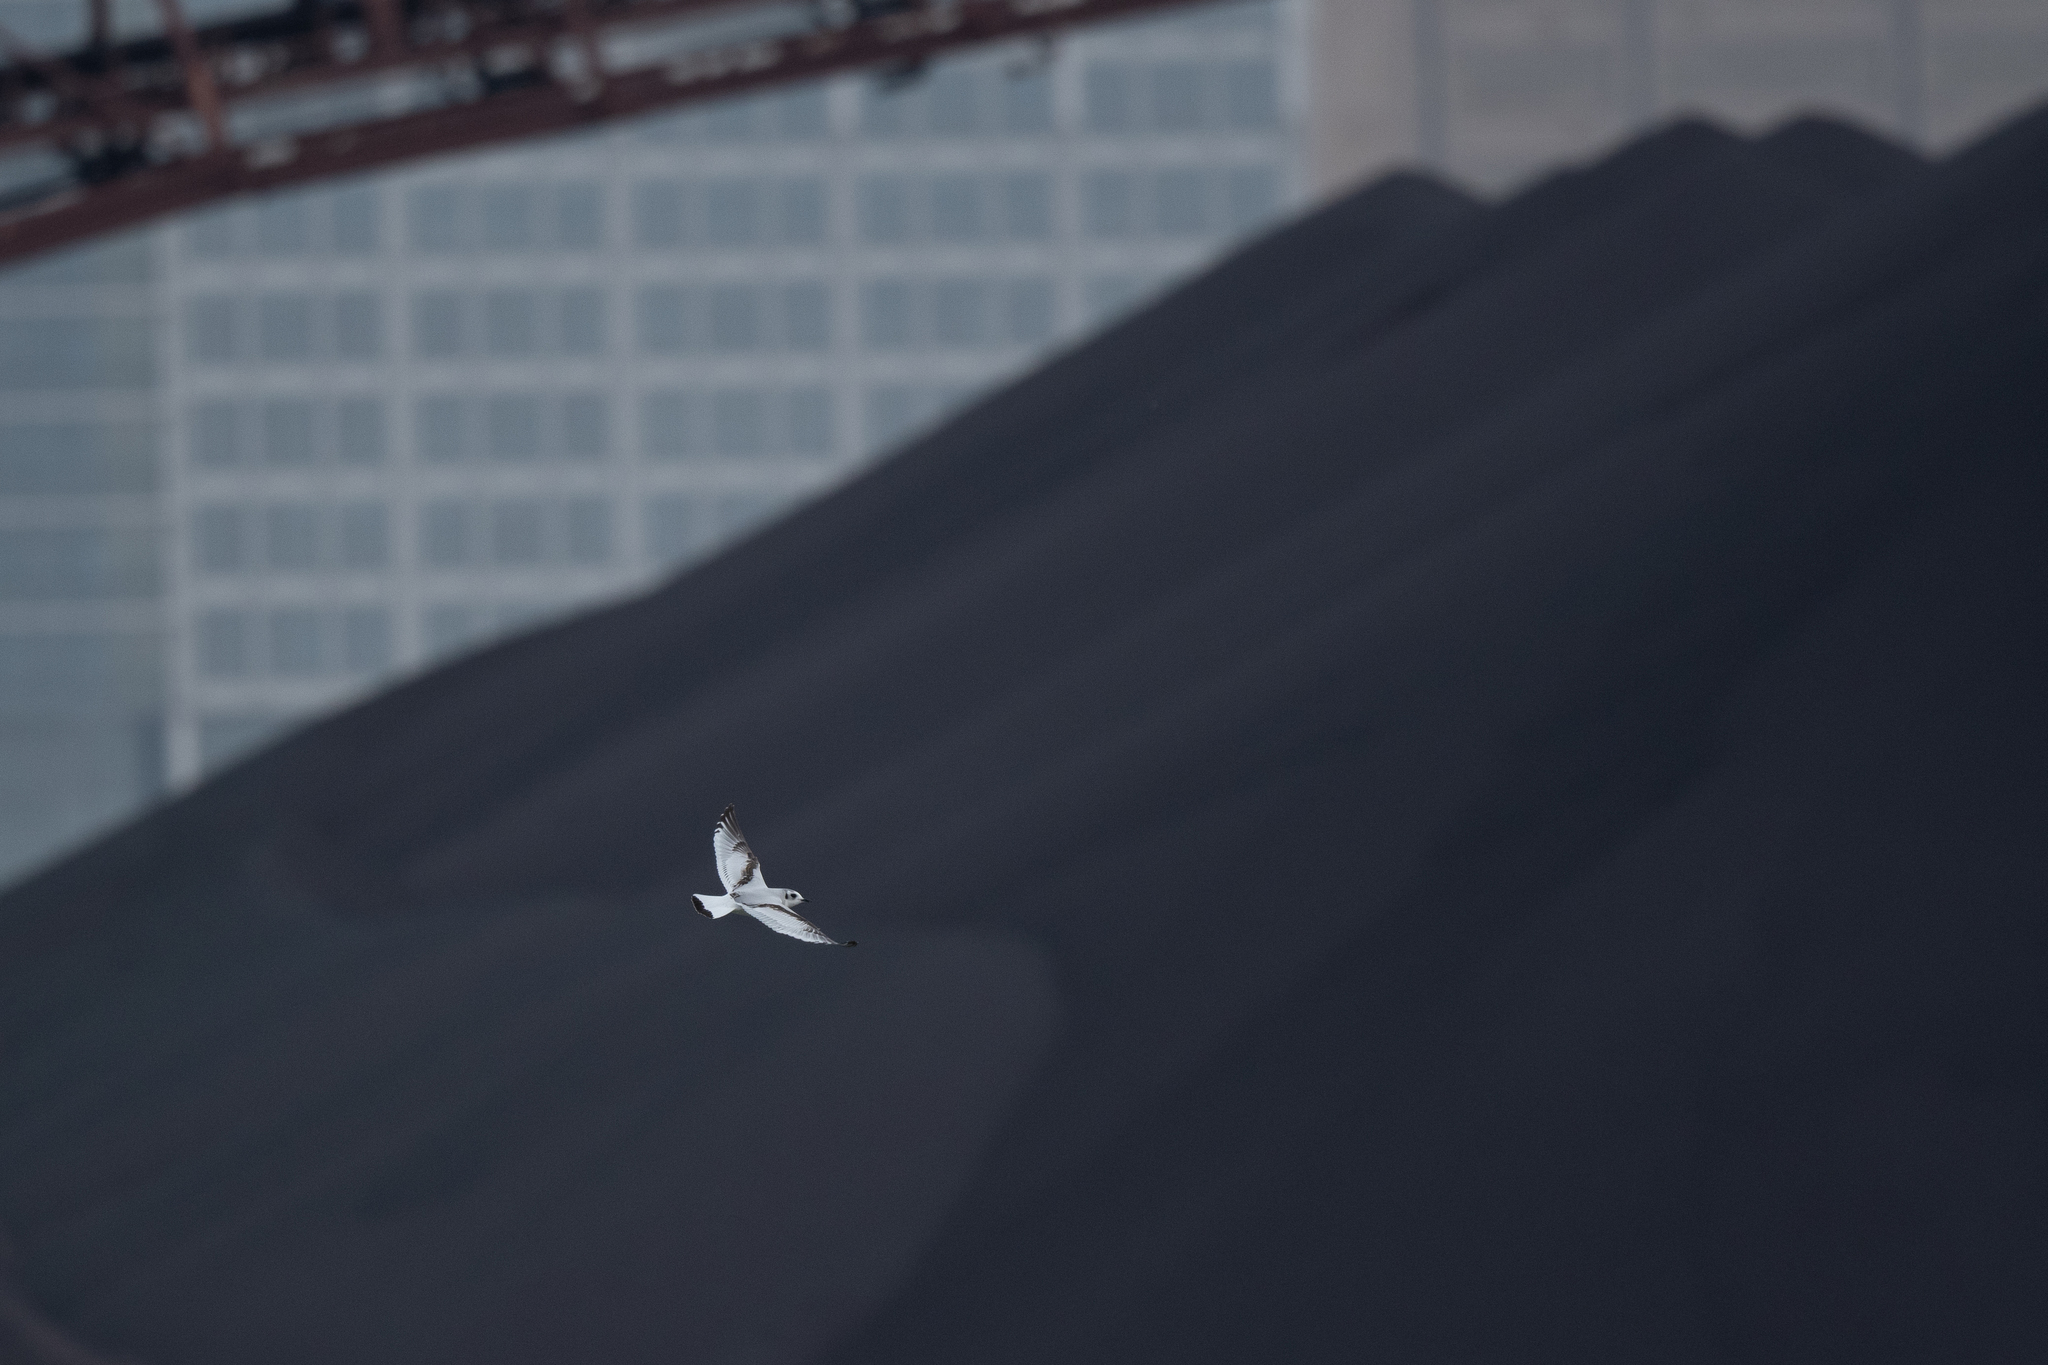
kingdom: Animalia
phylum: Chordata
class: Aves
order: Charadriiformes
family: Laridae
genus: Hydrocoloeus
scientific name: Hydrocoloeus minutus
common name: Little gull
